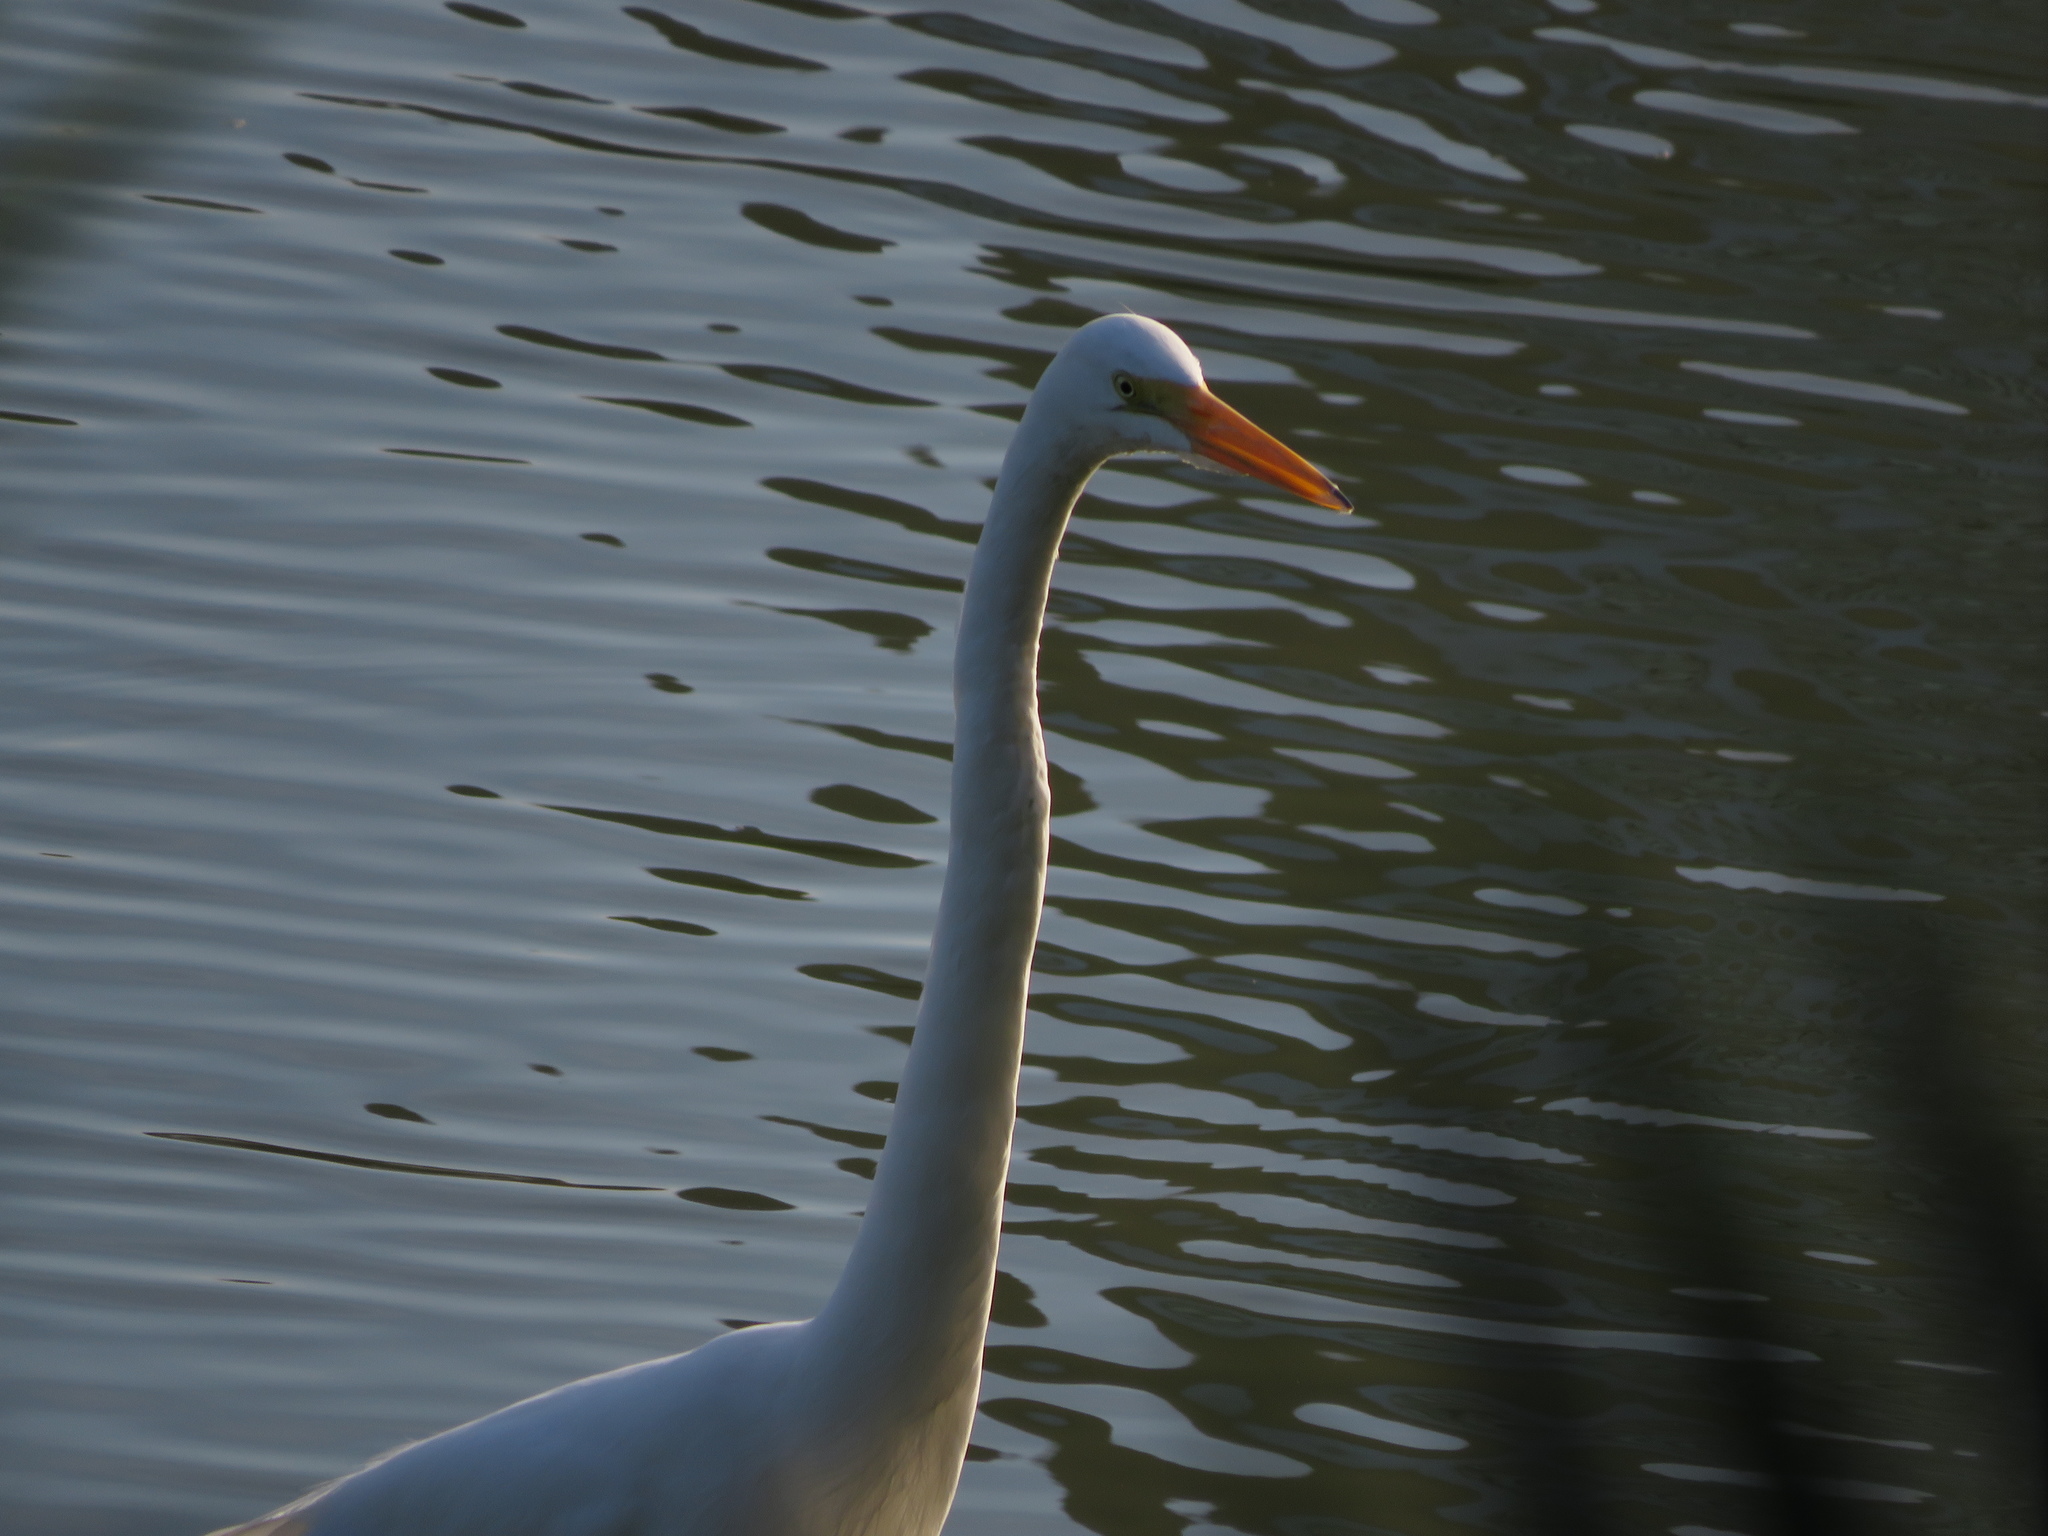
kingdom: Animalia
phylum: Chordata
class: Aves
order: Pelecaniformes
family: Ardeidae
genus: Ardea
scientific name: Ardea alba
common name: Great egret
